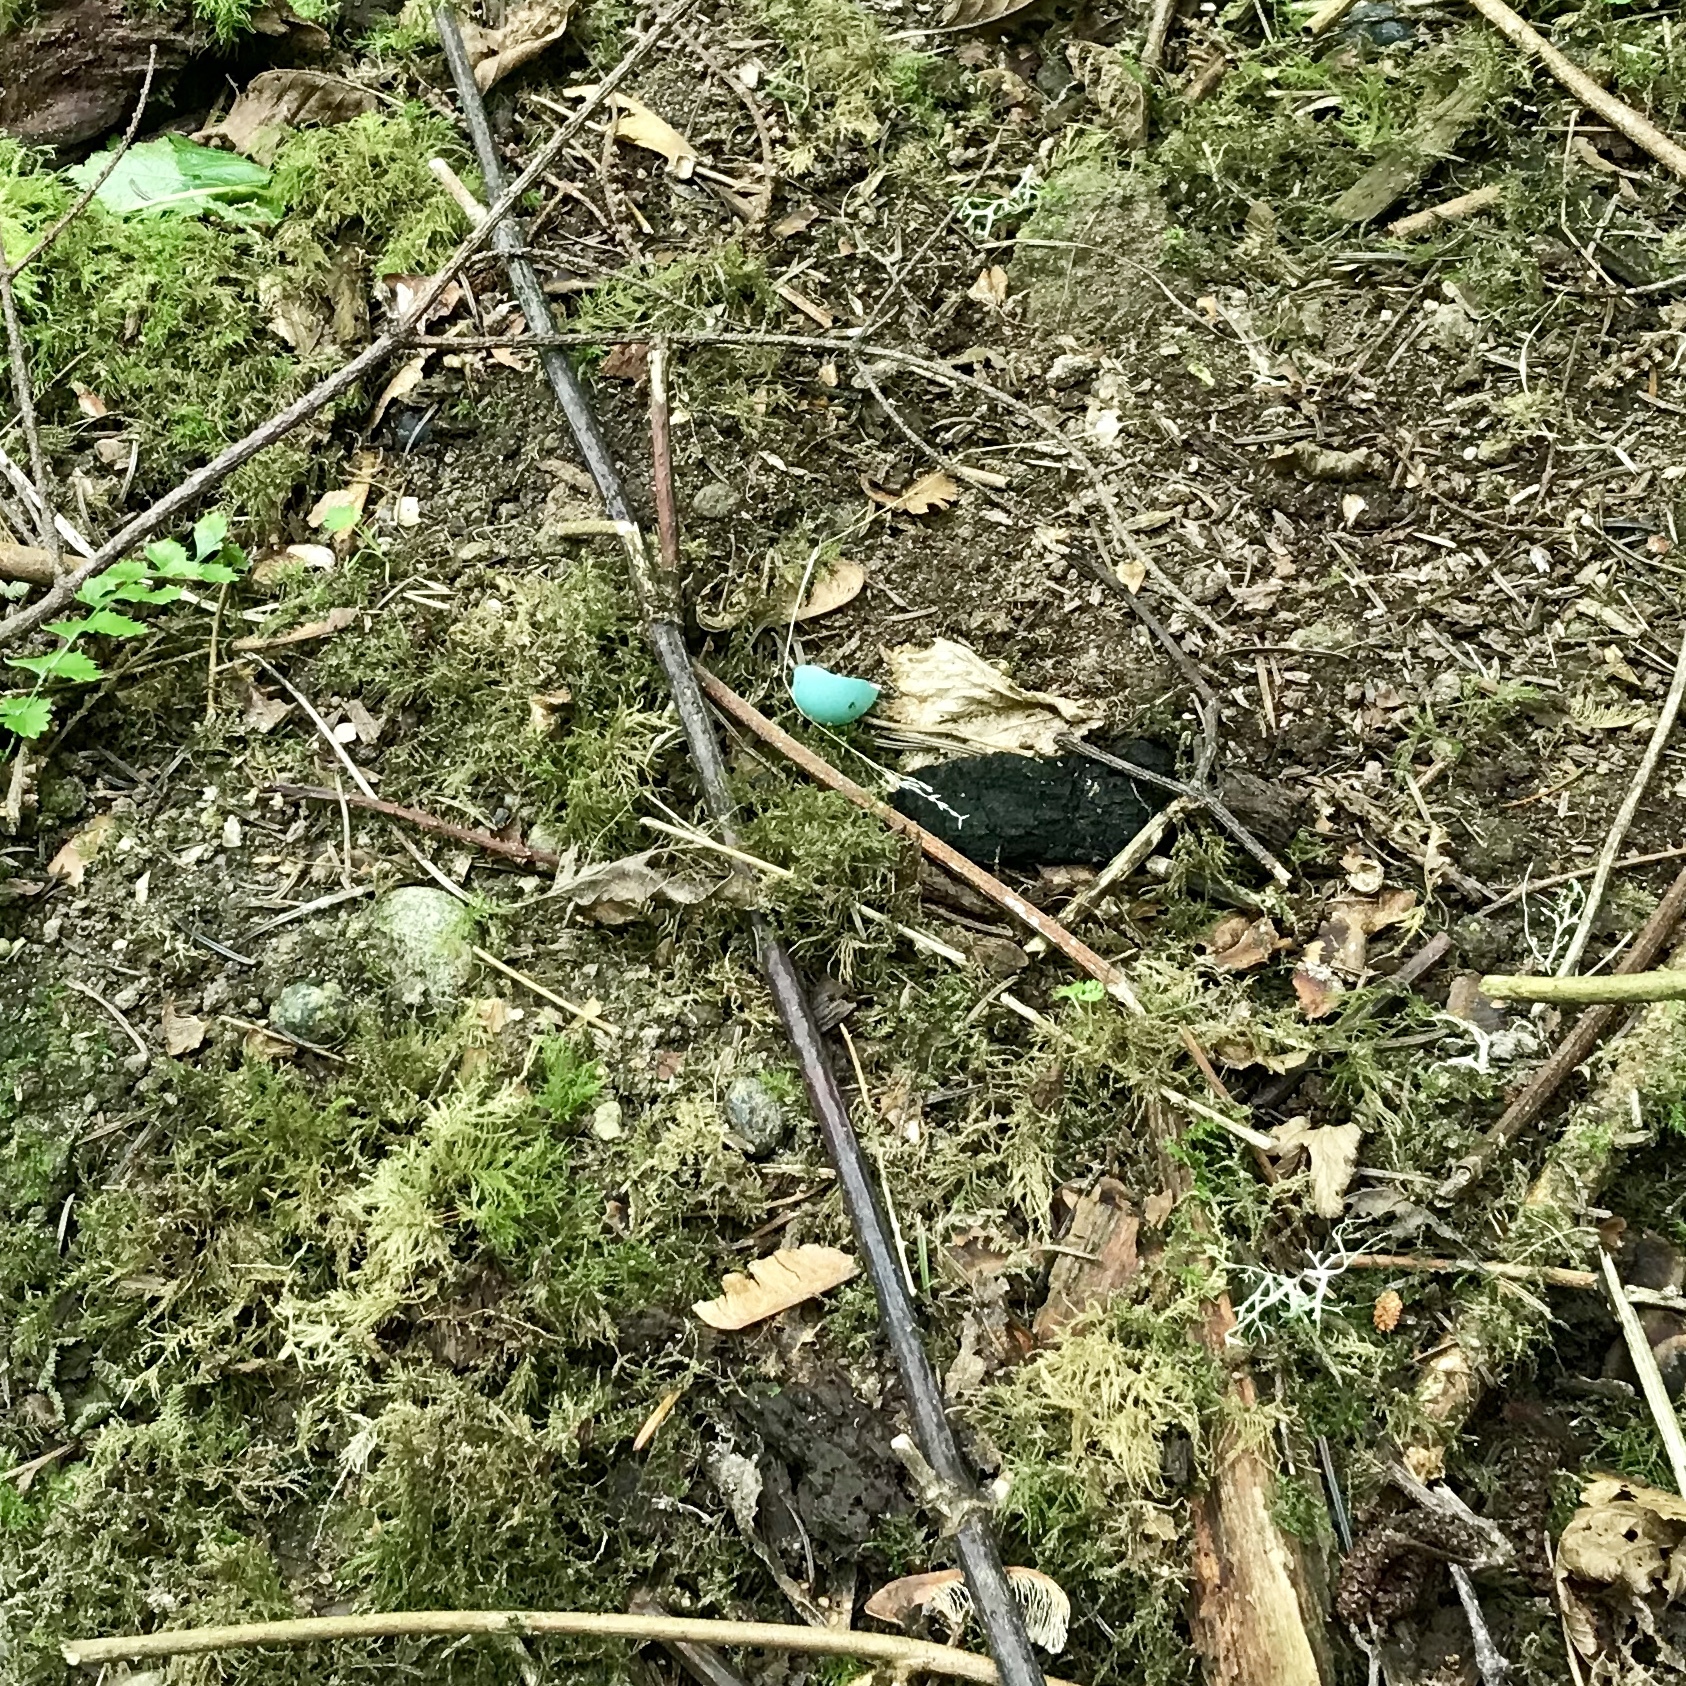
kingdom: Animalia
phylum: Chordata
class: Aves
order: Passeriformes
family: Turdidae
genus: Turdus
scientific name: Turdus migratorius
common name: American robin
